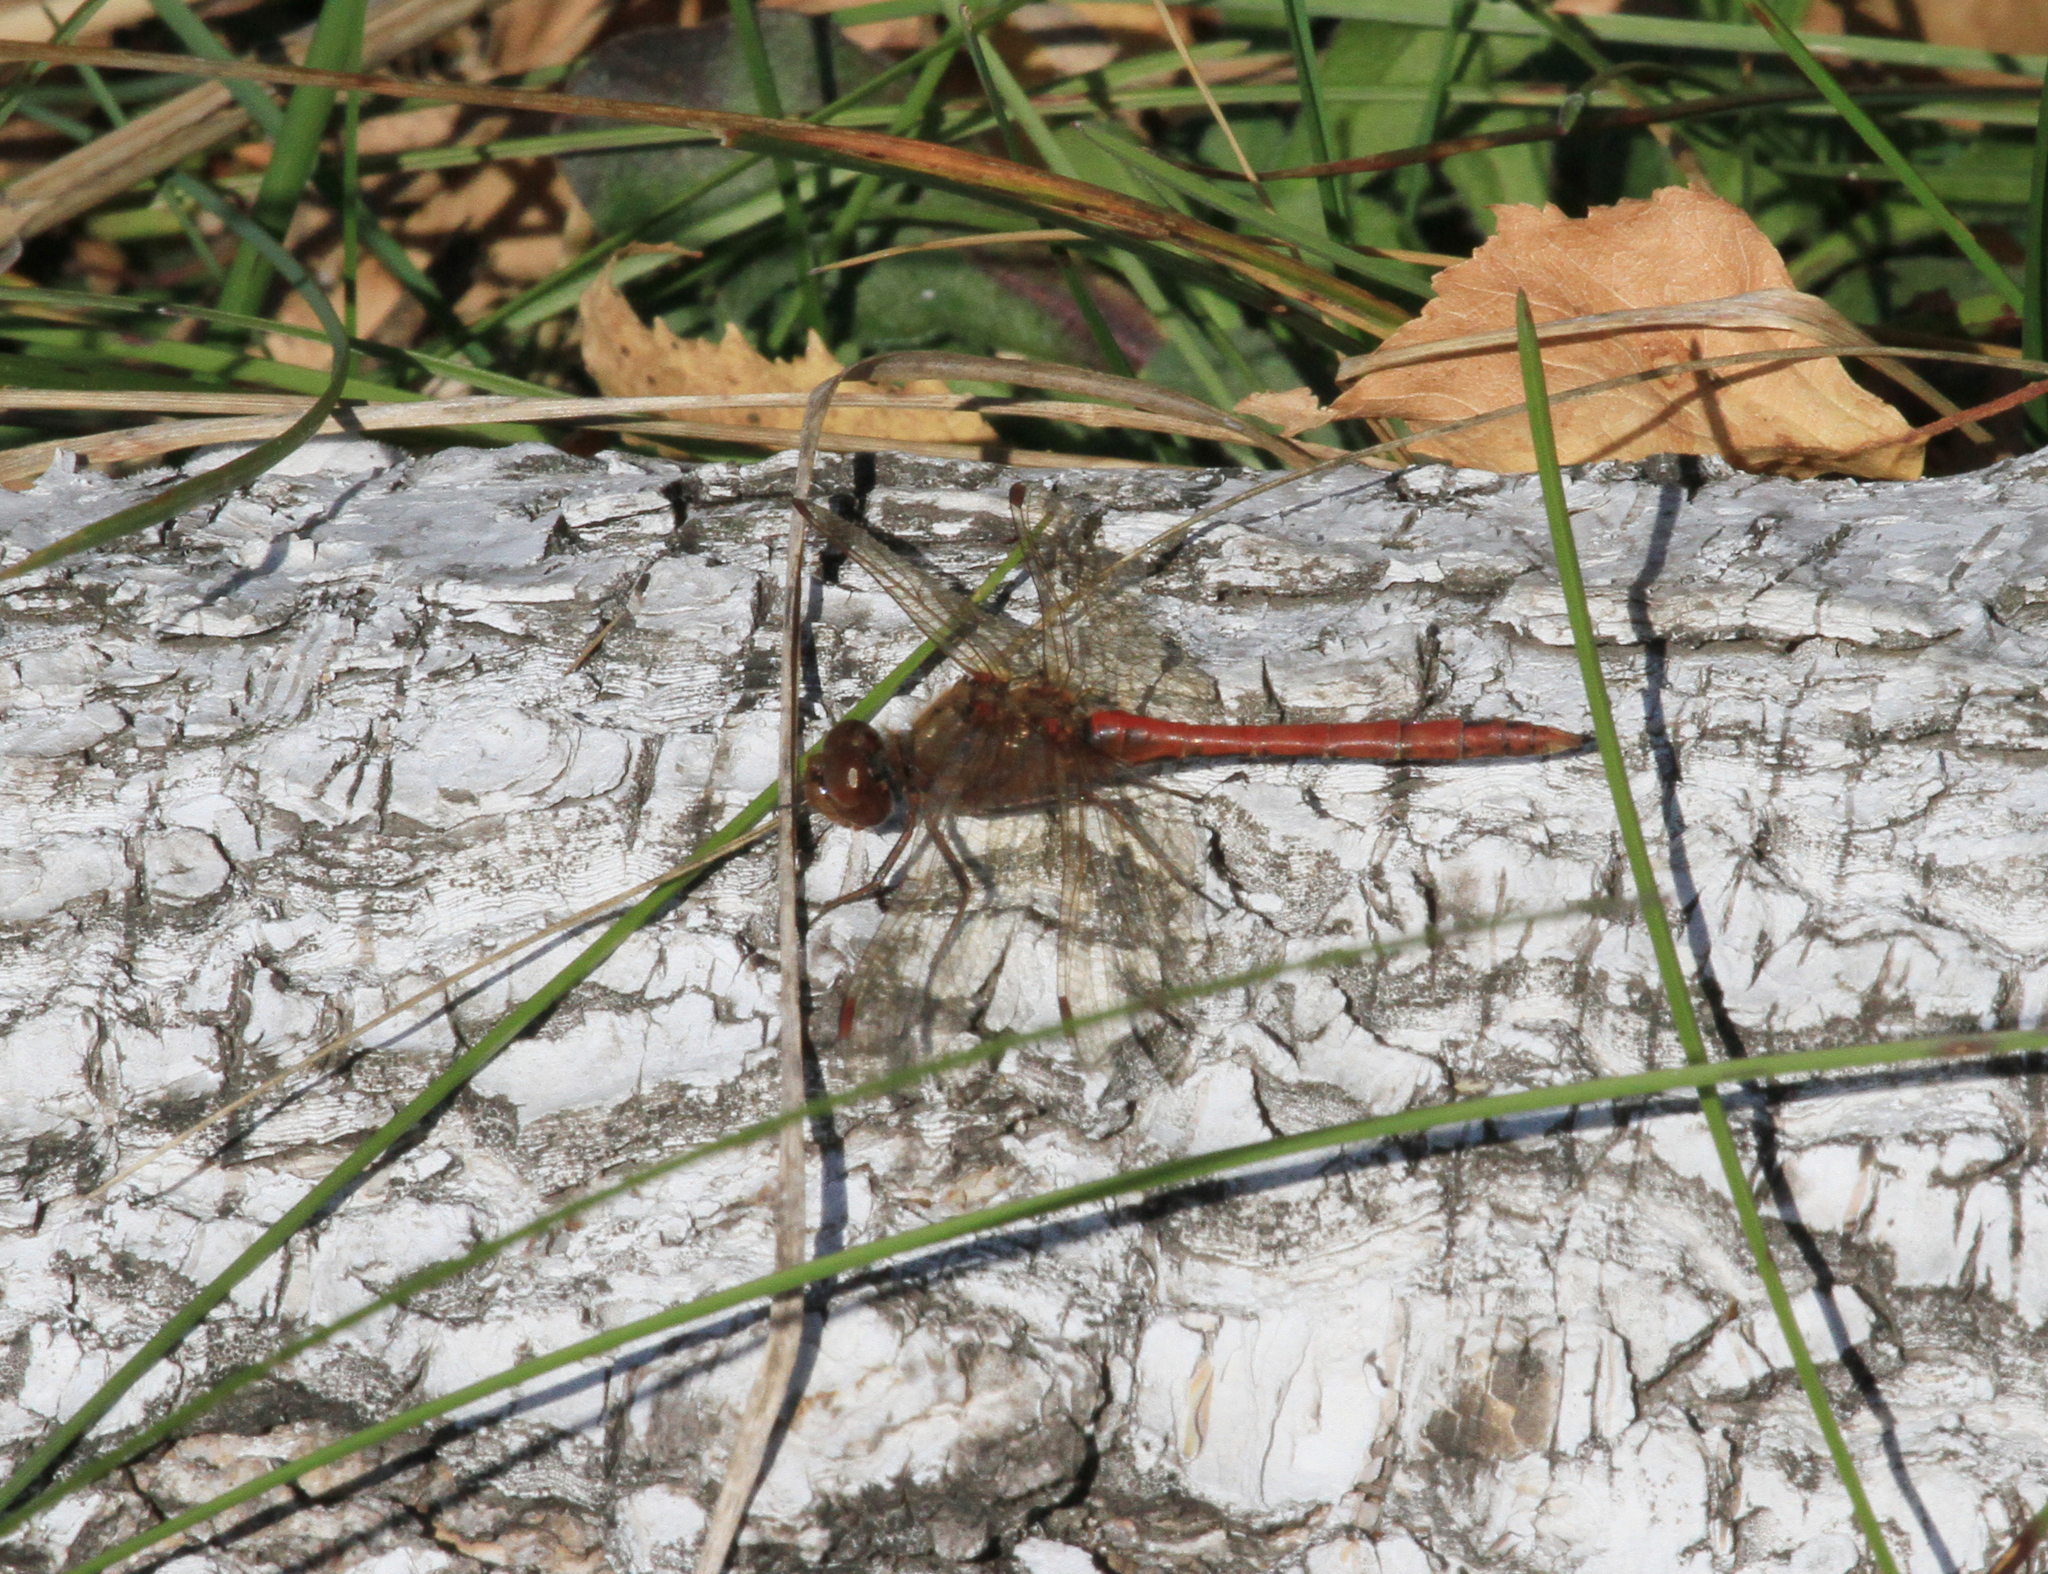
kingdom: Animalia
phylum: Arthropoda
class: Insecta
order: Odonata
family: Libellulidae
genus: Sympetrum
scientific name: Sympetrum vulgatum
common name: Vagrant darter
